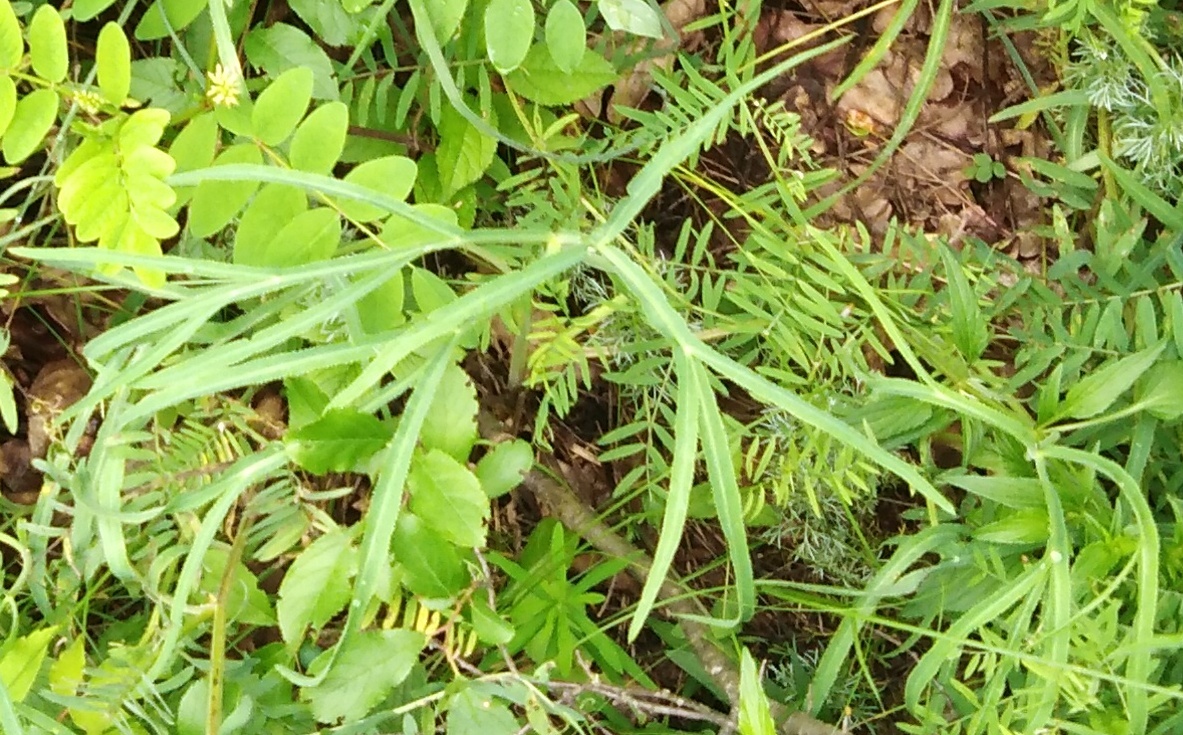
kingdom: Plantae
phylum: Tracheophyta
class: Magnoliopsida
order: Apiales
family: Apiaceae
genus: Falcaria
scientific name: Falcaria vulgaris
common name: Longleaf
